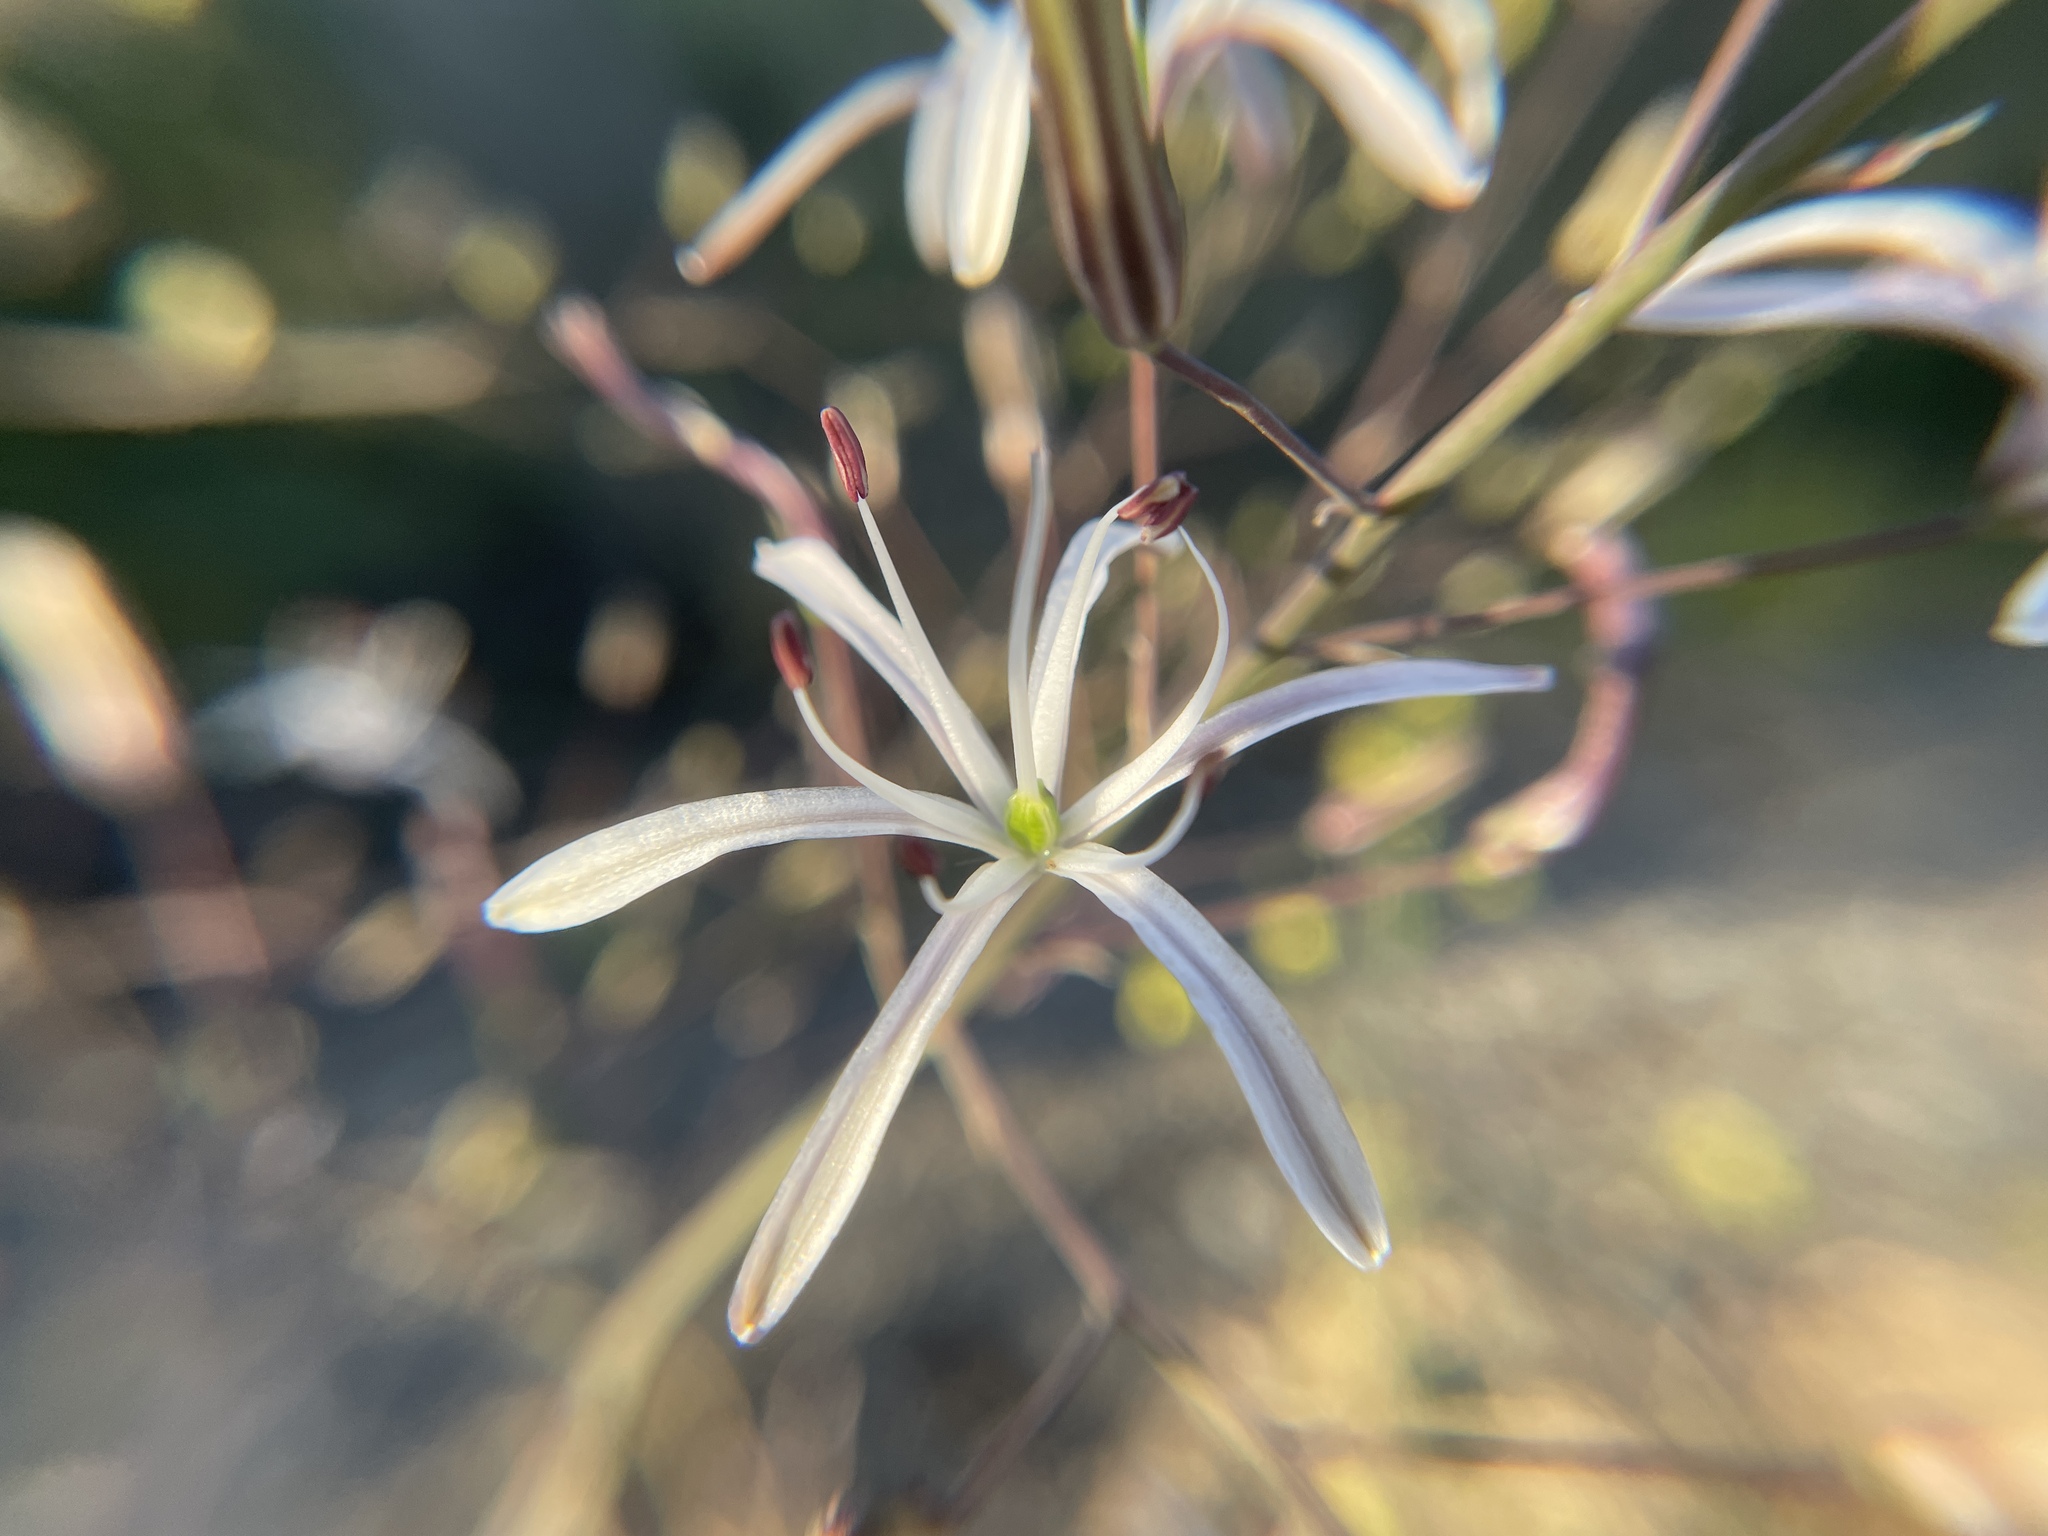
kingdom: Plantae
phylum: Tracheophyta
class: Liliopsida
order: Asparagales
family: Asparagaceae
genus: Chlorogalum
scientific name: Chlorogalum pomeridianum
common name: Amole
